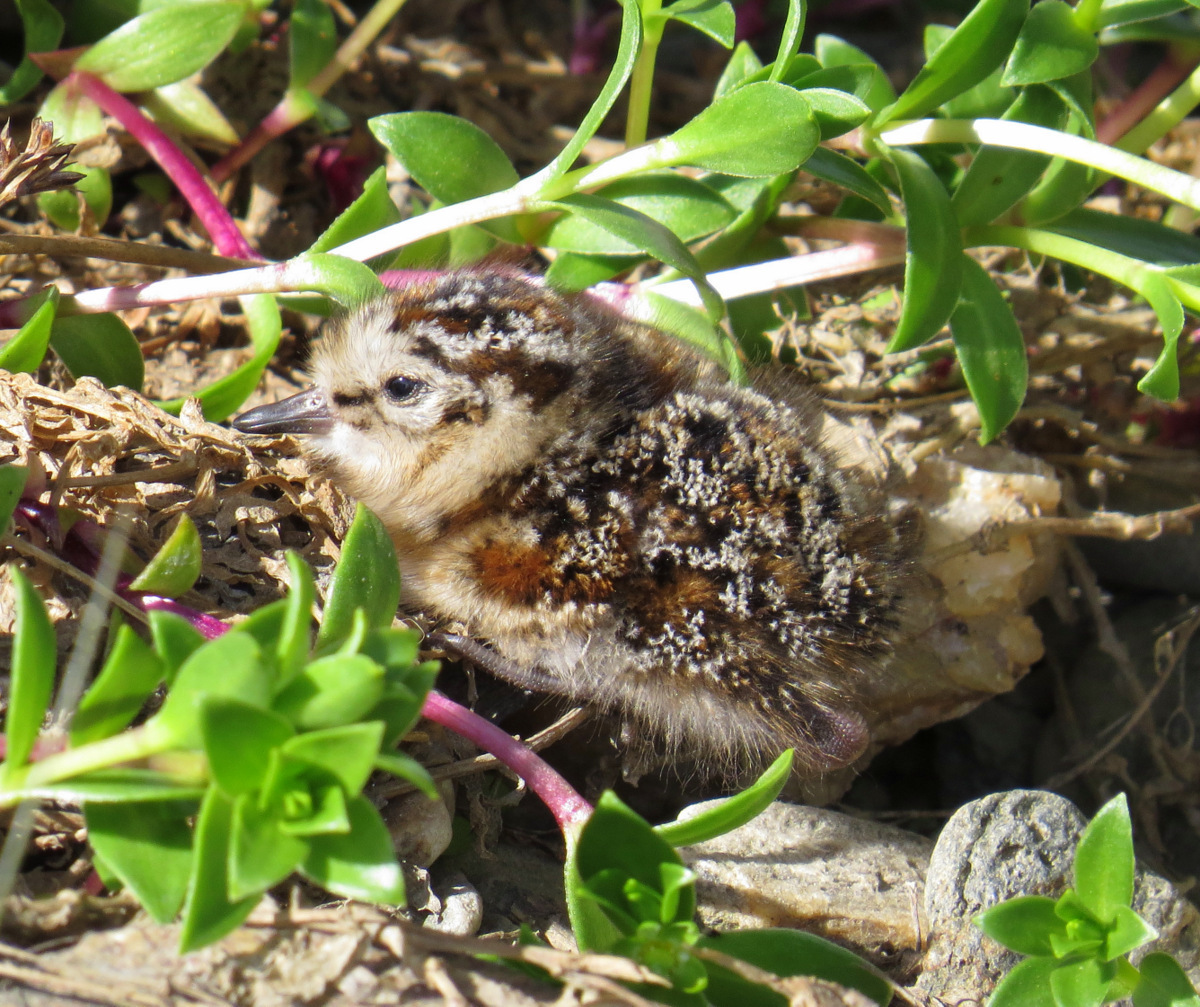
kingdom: Animalia
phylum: Chordata
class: Aves
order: Charadriiformes
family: Scolopacidae
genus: Calidris
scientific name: Calidris pusilla
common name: Semipalmated sandpiper
